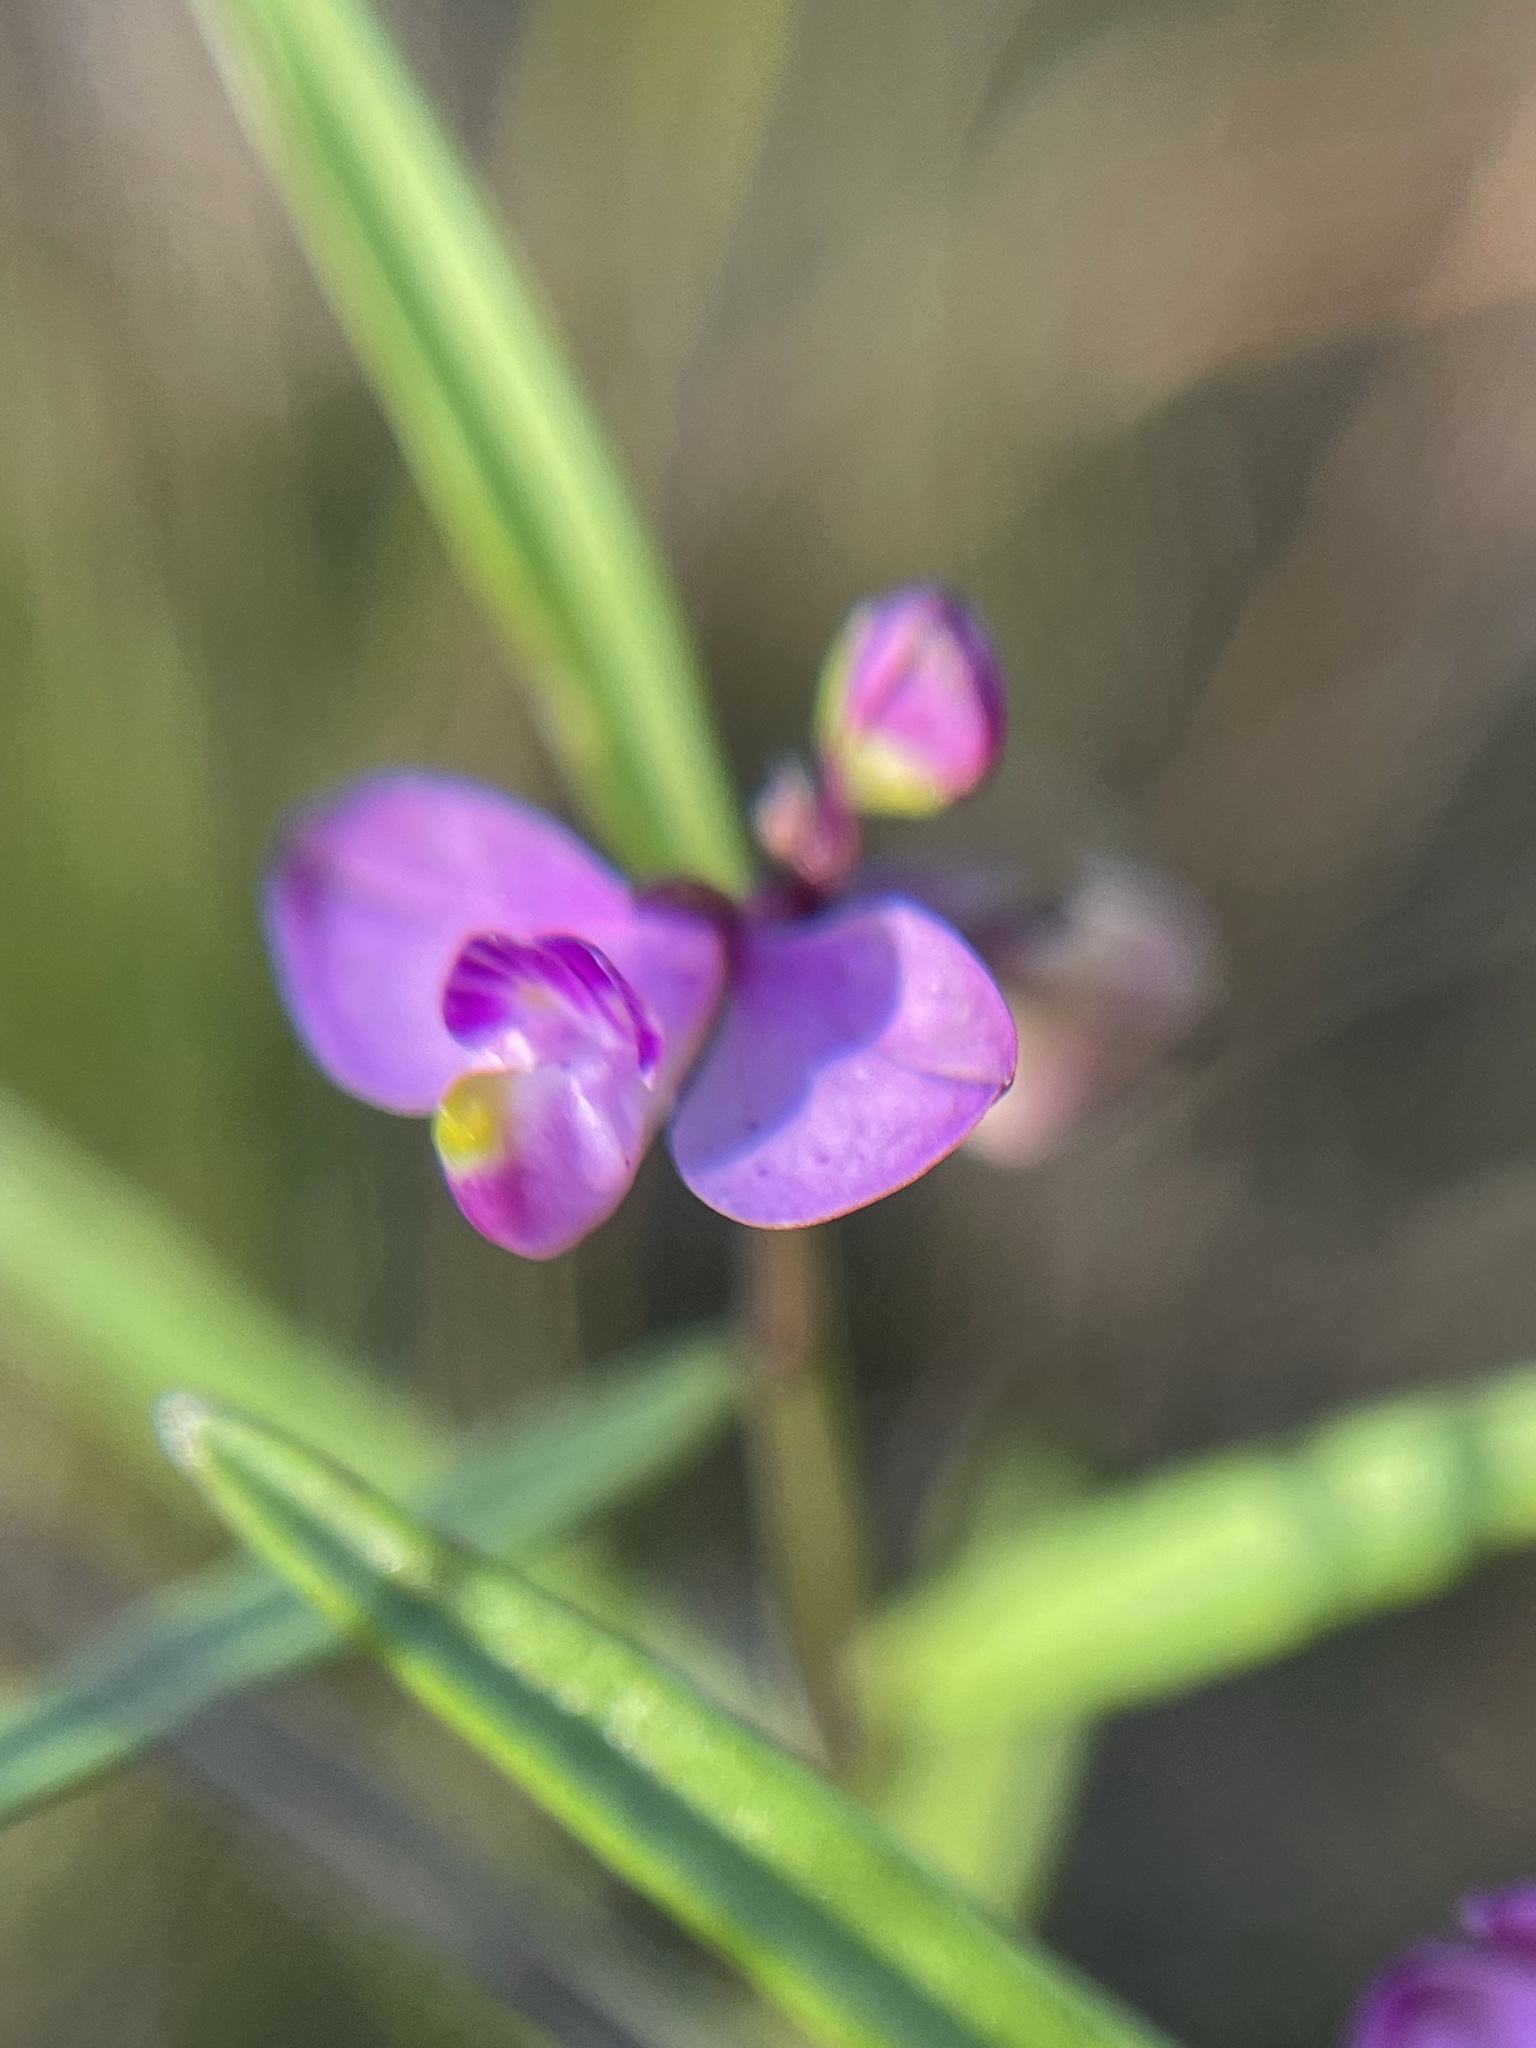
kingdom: Plantae
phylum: Tracheophyta
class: Magnoliopsida
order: Fabales
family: Polygalaceae
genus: Asemeia
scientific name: Asemeia grandiflora
